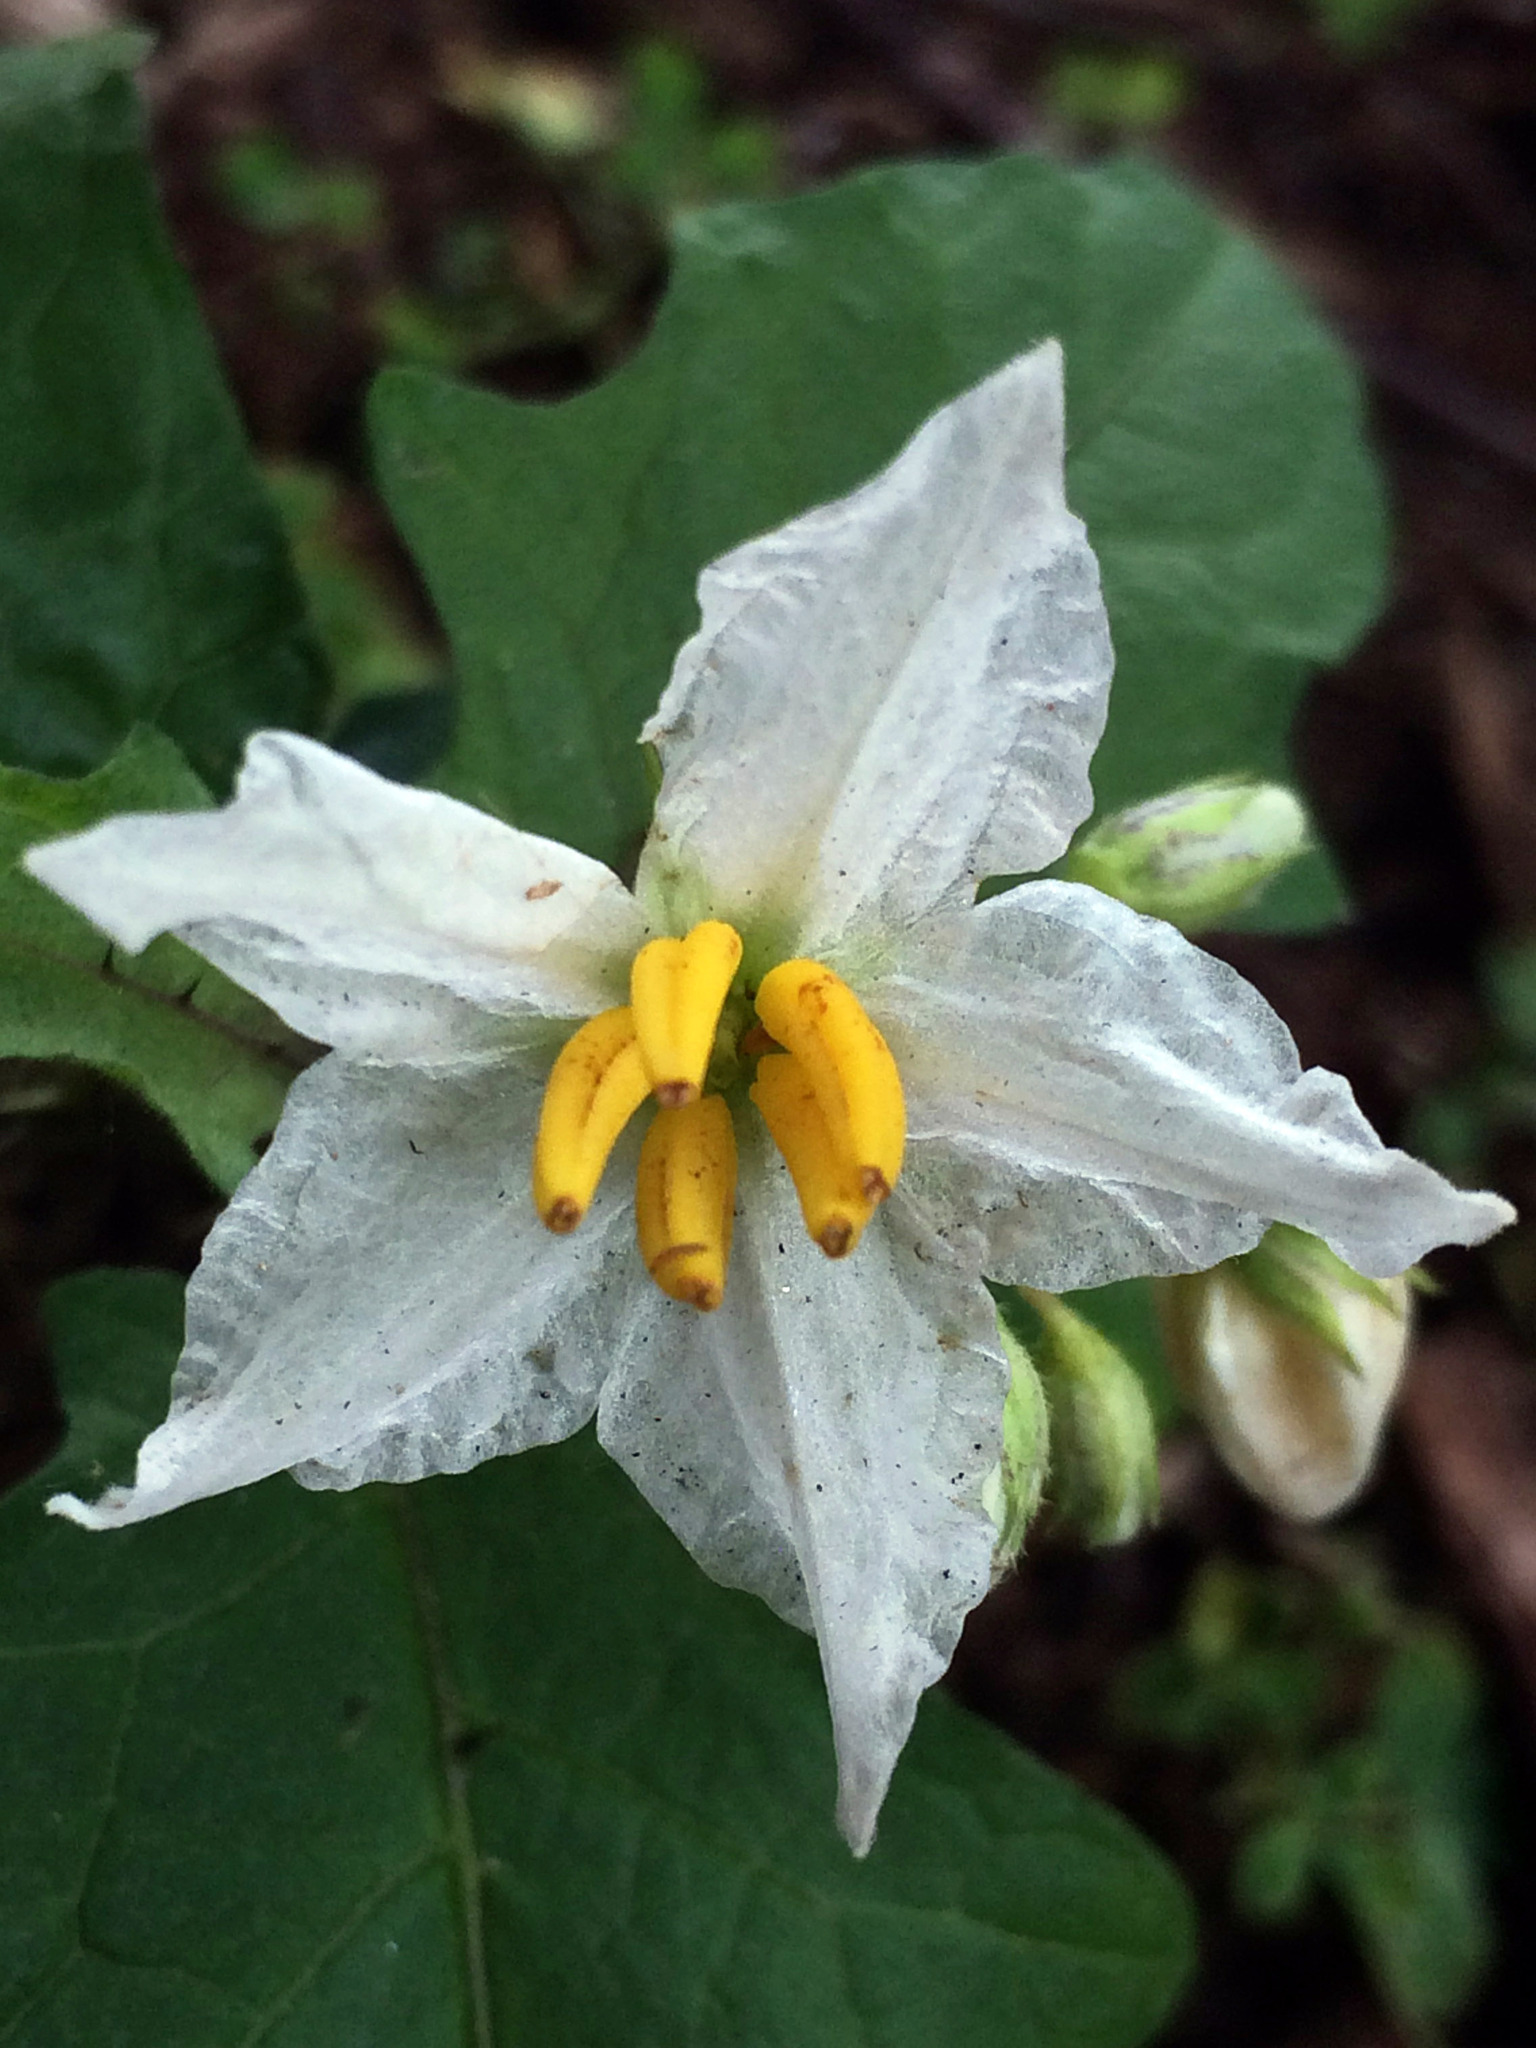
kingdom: Plantae
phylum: Tracheophyta
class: Magnoliopsida
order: Solanales
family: Solanaceae
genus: Solanum
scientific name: Solanum carolinense
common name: Horse-nettle
